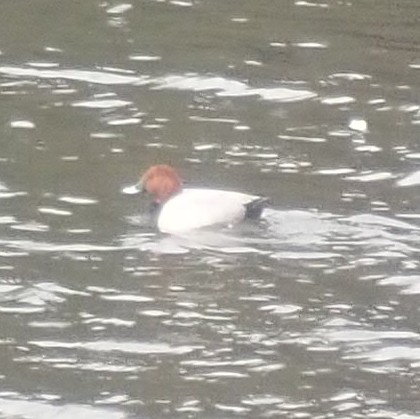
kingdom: Animalia
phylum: Chordata
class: Aves
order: Anseriformes
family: Anatidae
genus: Aythya
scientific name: Aythya ferina
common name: Common pochard
